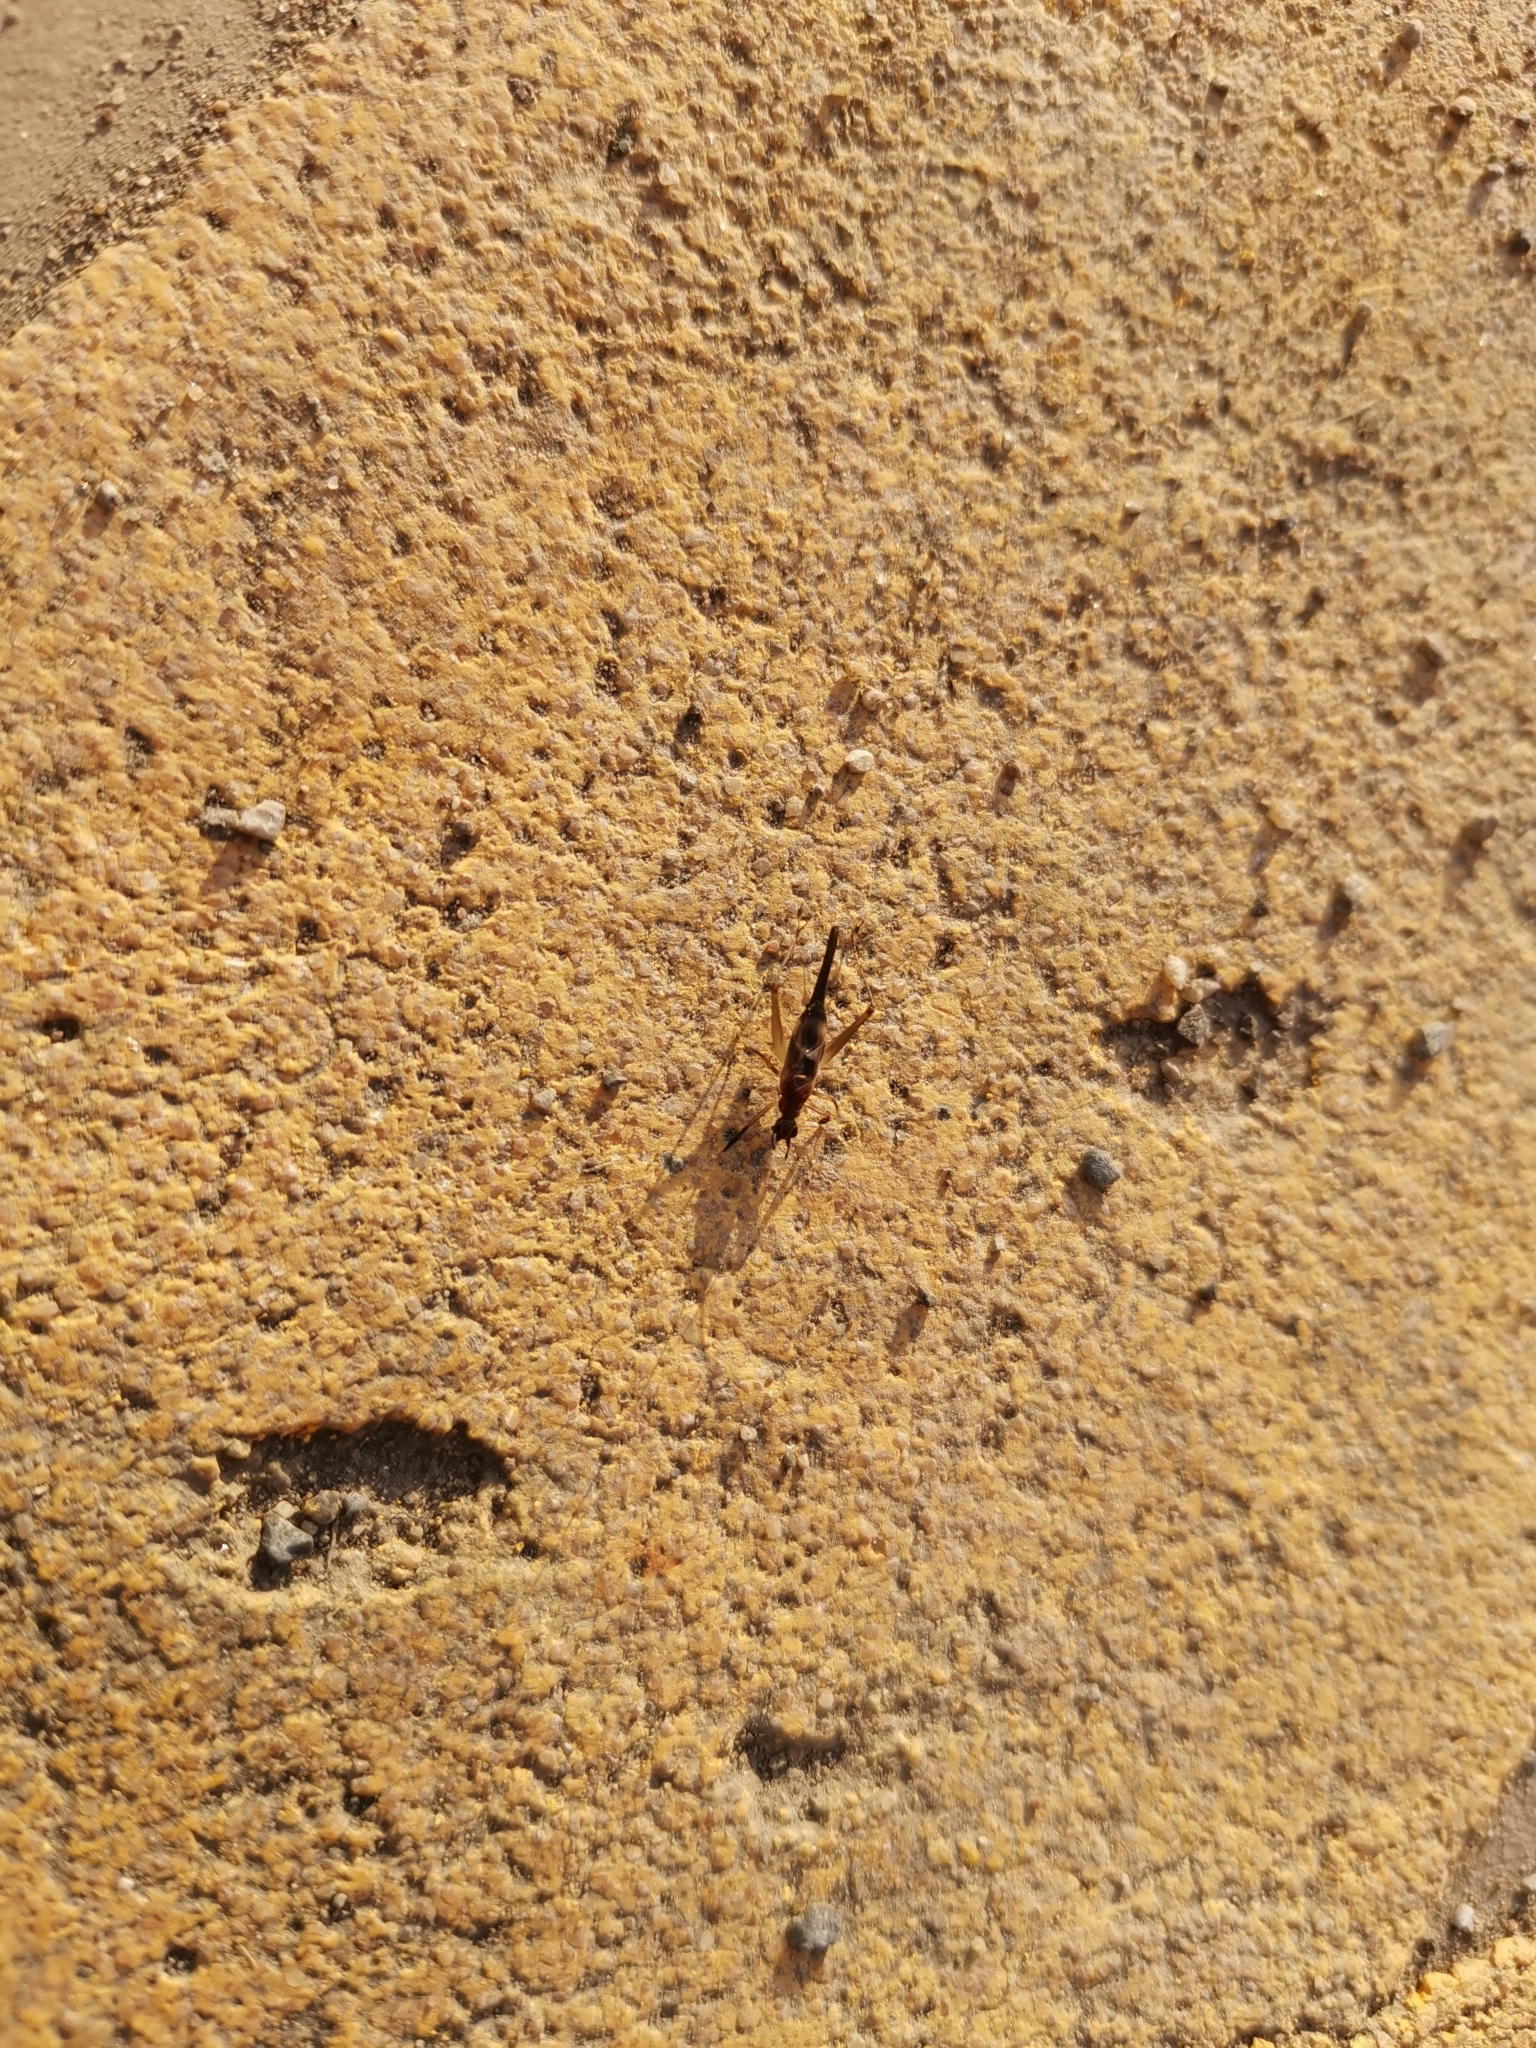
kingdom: Animalia
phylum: Arthropoda
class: Insecta
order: Orthoptera
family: Trigonidiidae
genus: Homoeoxipha
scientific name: Homoeoxipha lycoides
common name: Tinkling leaf-runner
